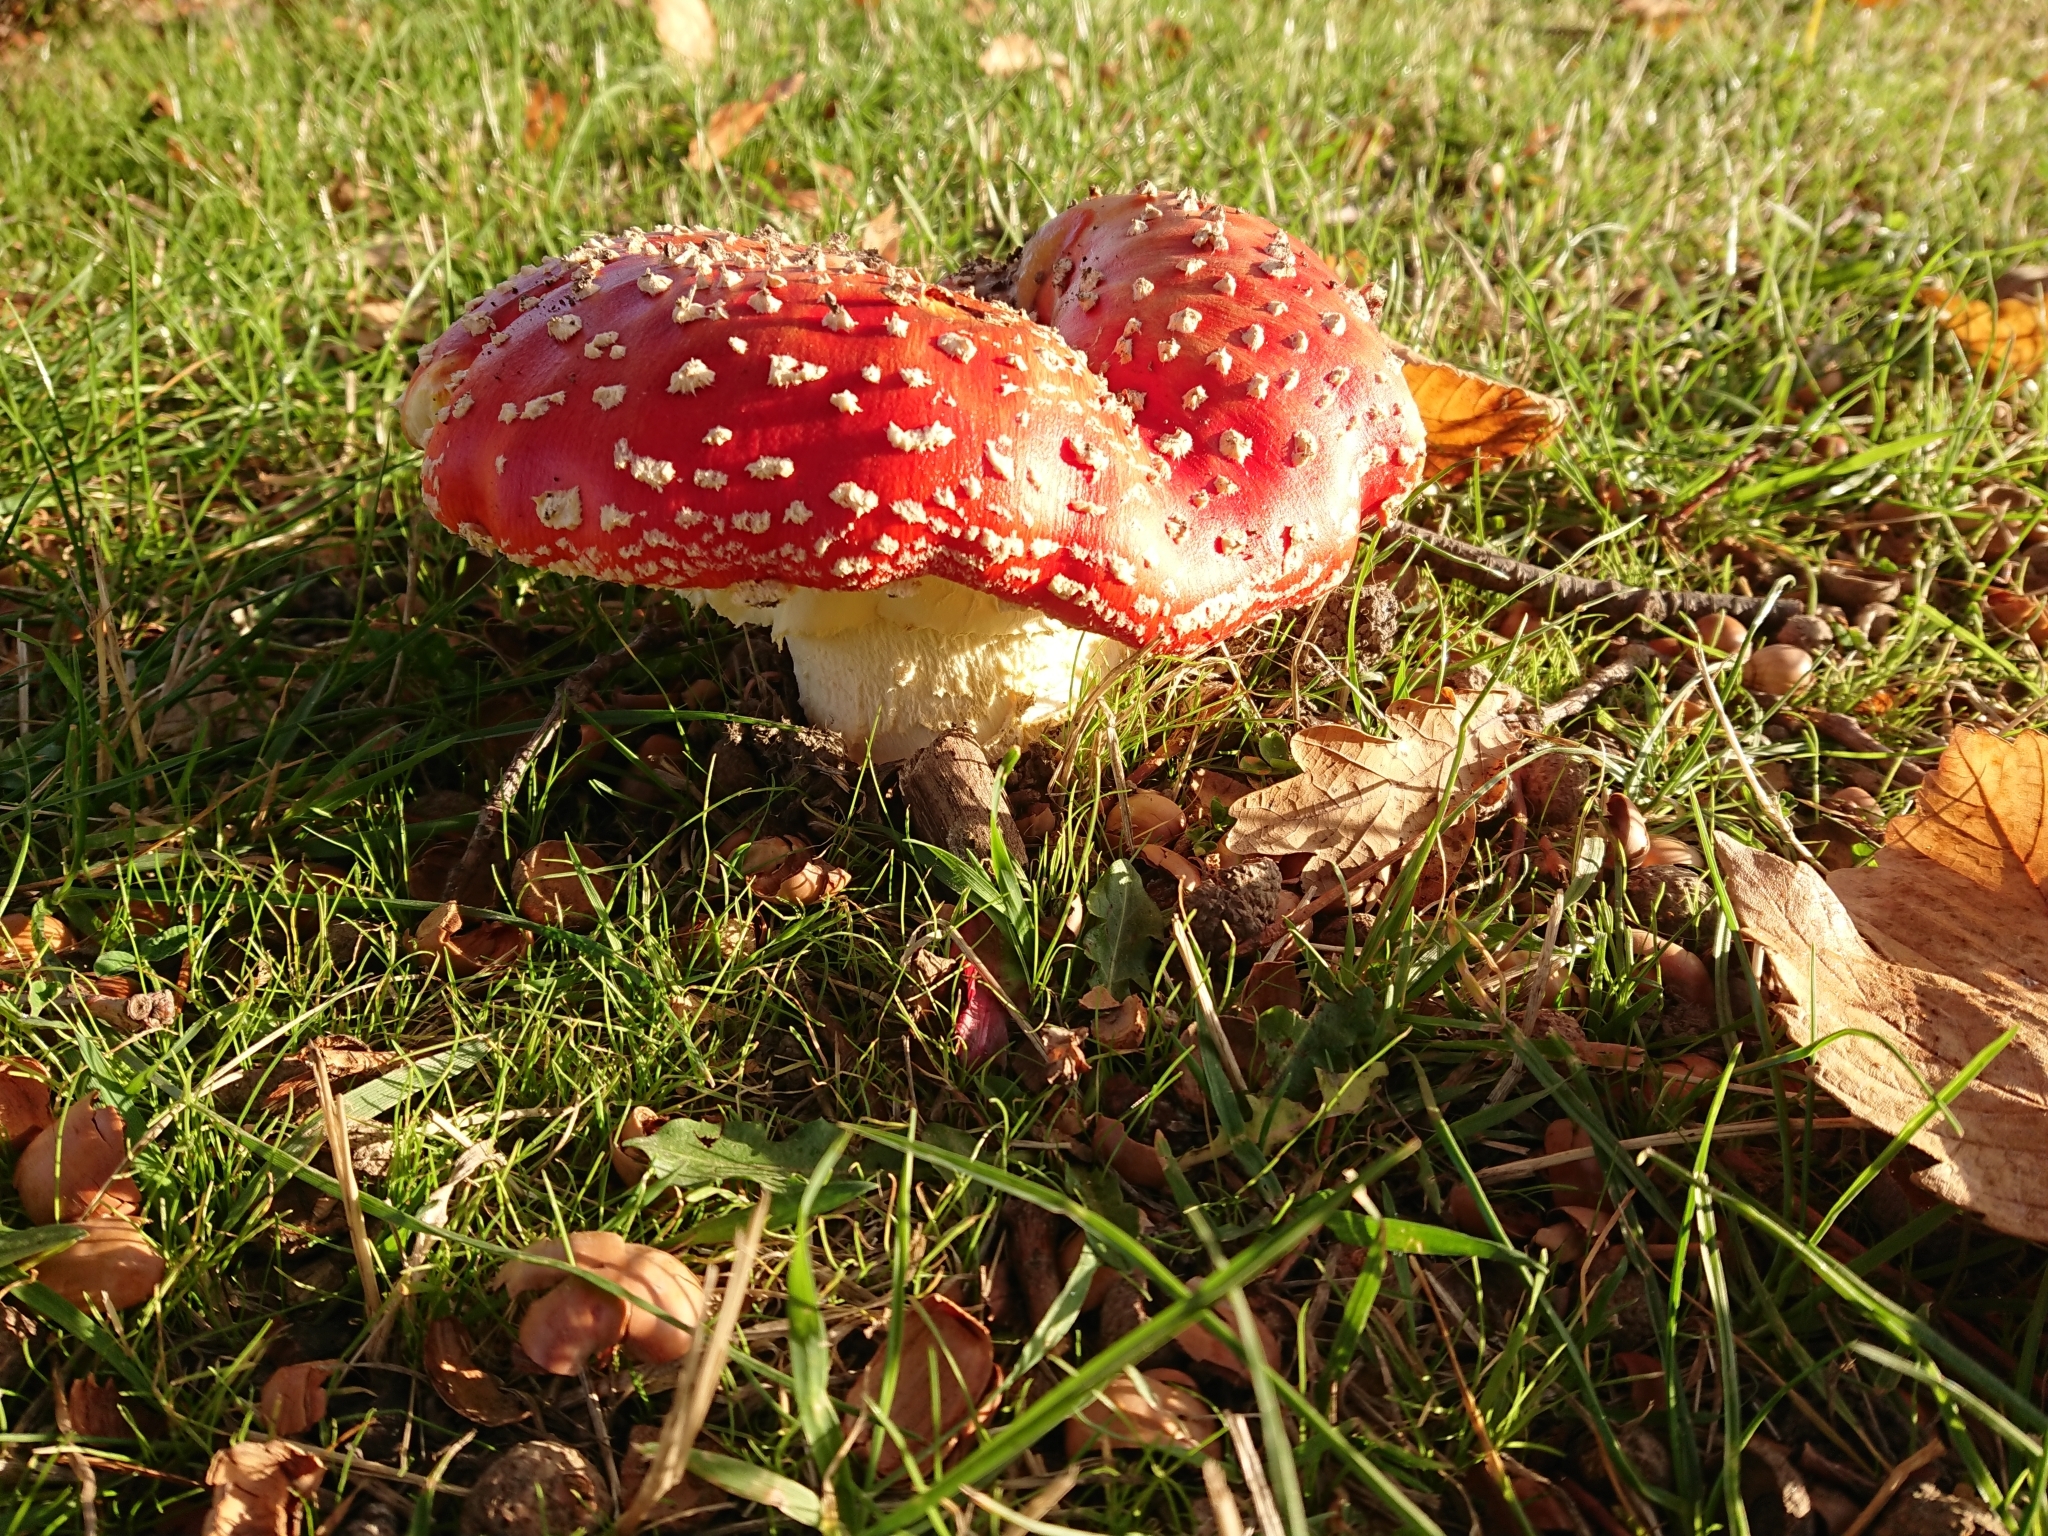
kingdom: Fungi
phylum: Basidiomycota
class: Agaricomycetes
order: Agaricales
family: Amanitaceae
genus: Amanita
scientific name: Amanita muscaria
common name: Fly agaric
